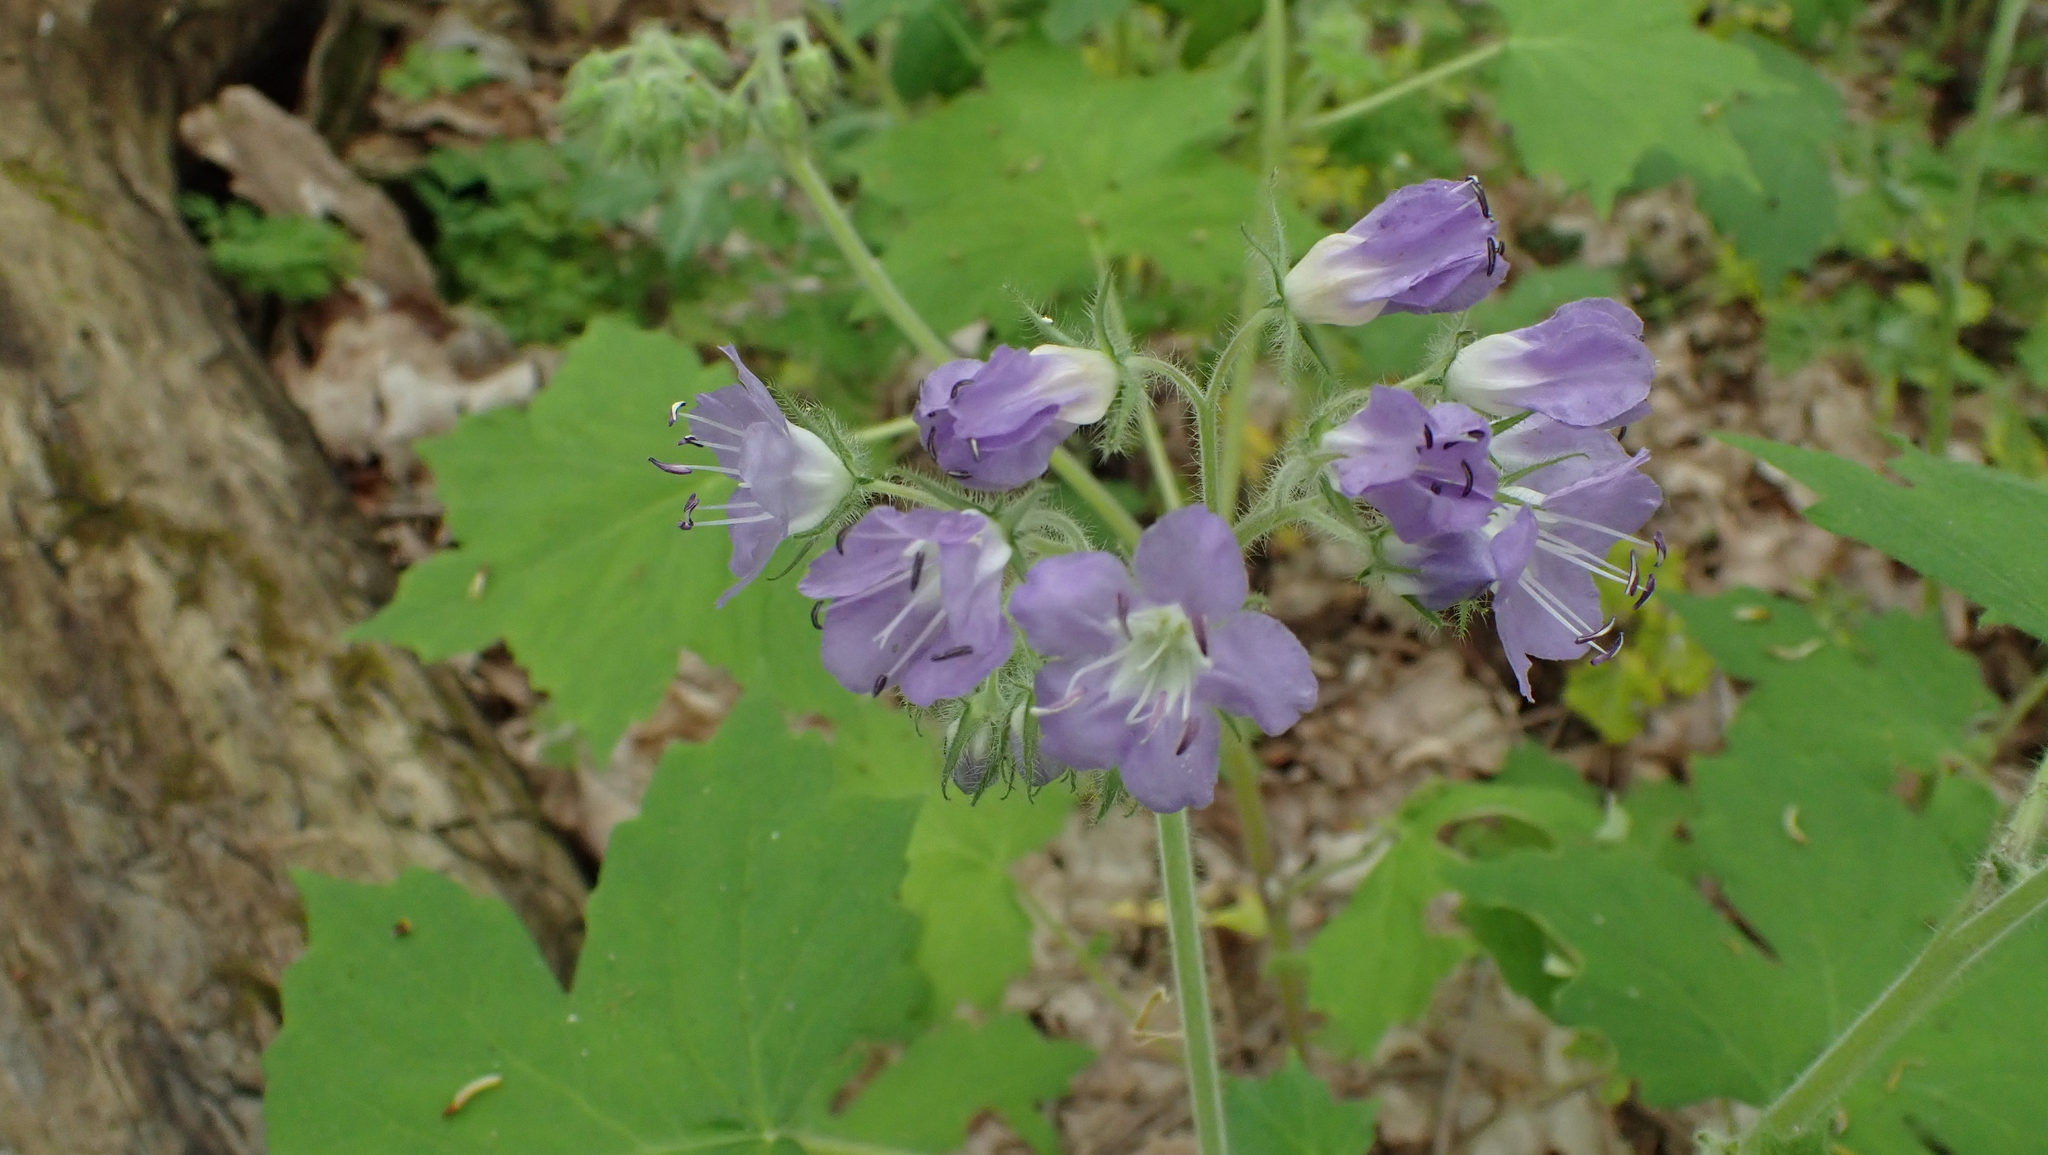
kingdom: Plantae
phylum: Tracheophyta
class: Magnoliopsida
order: Boraginales
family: Hydrophyllaceae
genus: Hydrophyllum
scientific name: Hydrophyllum appendiculatum
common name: Appendaged waterleaf
